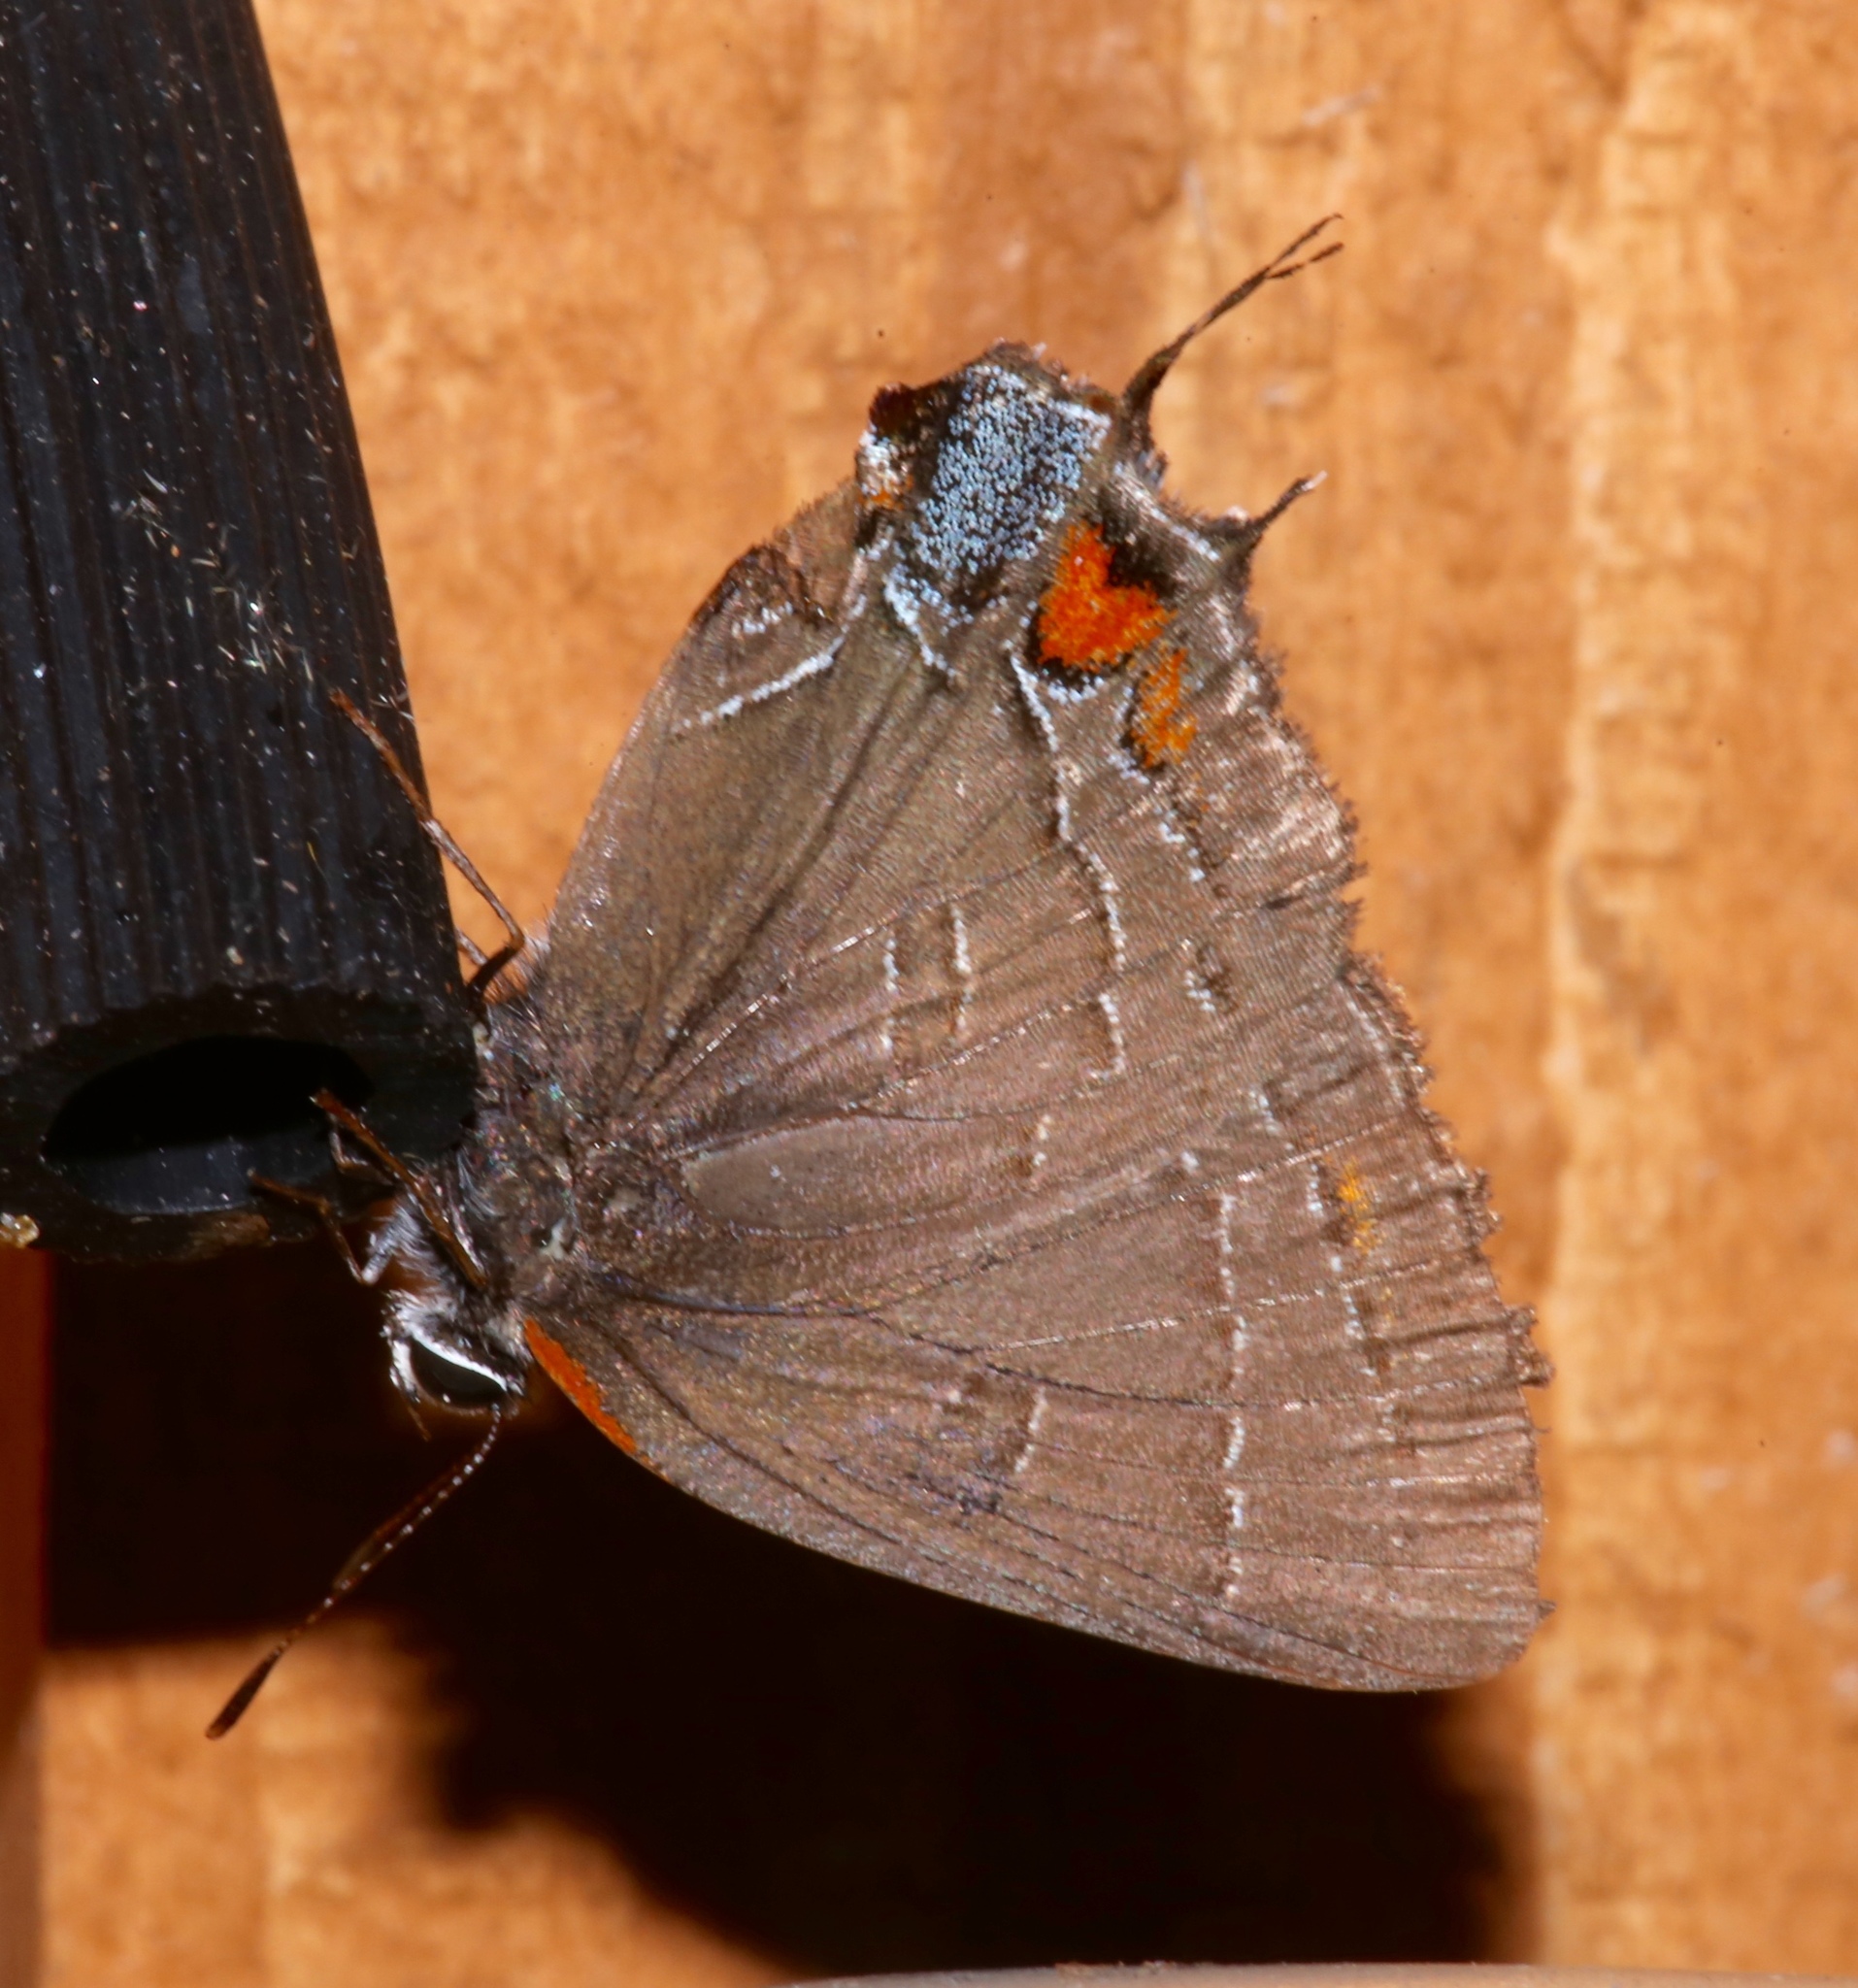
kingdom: Animalia
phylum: Arthropoda
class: Insecta
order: Lepidoptera
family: Lycaenidae
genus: Satyrium
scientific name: Satyrium calanus
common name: Banded hairstreak
